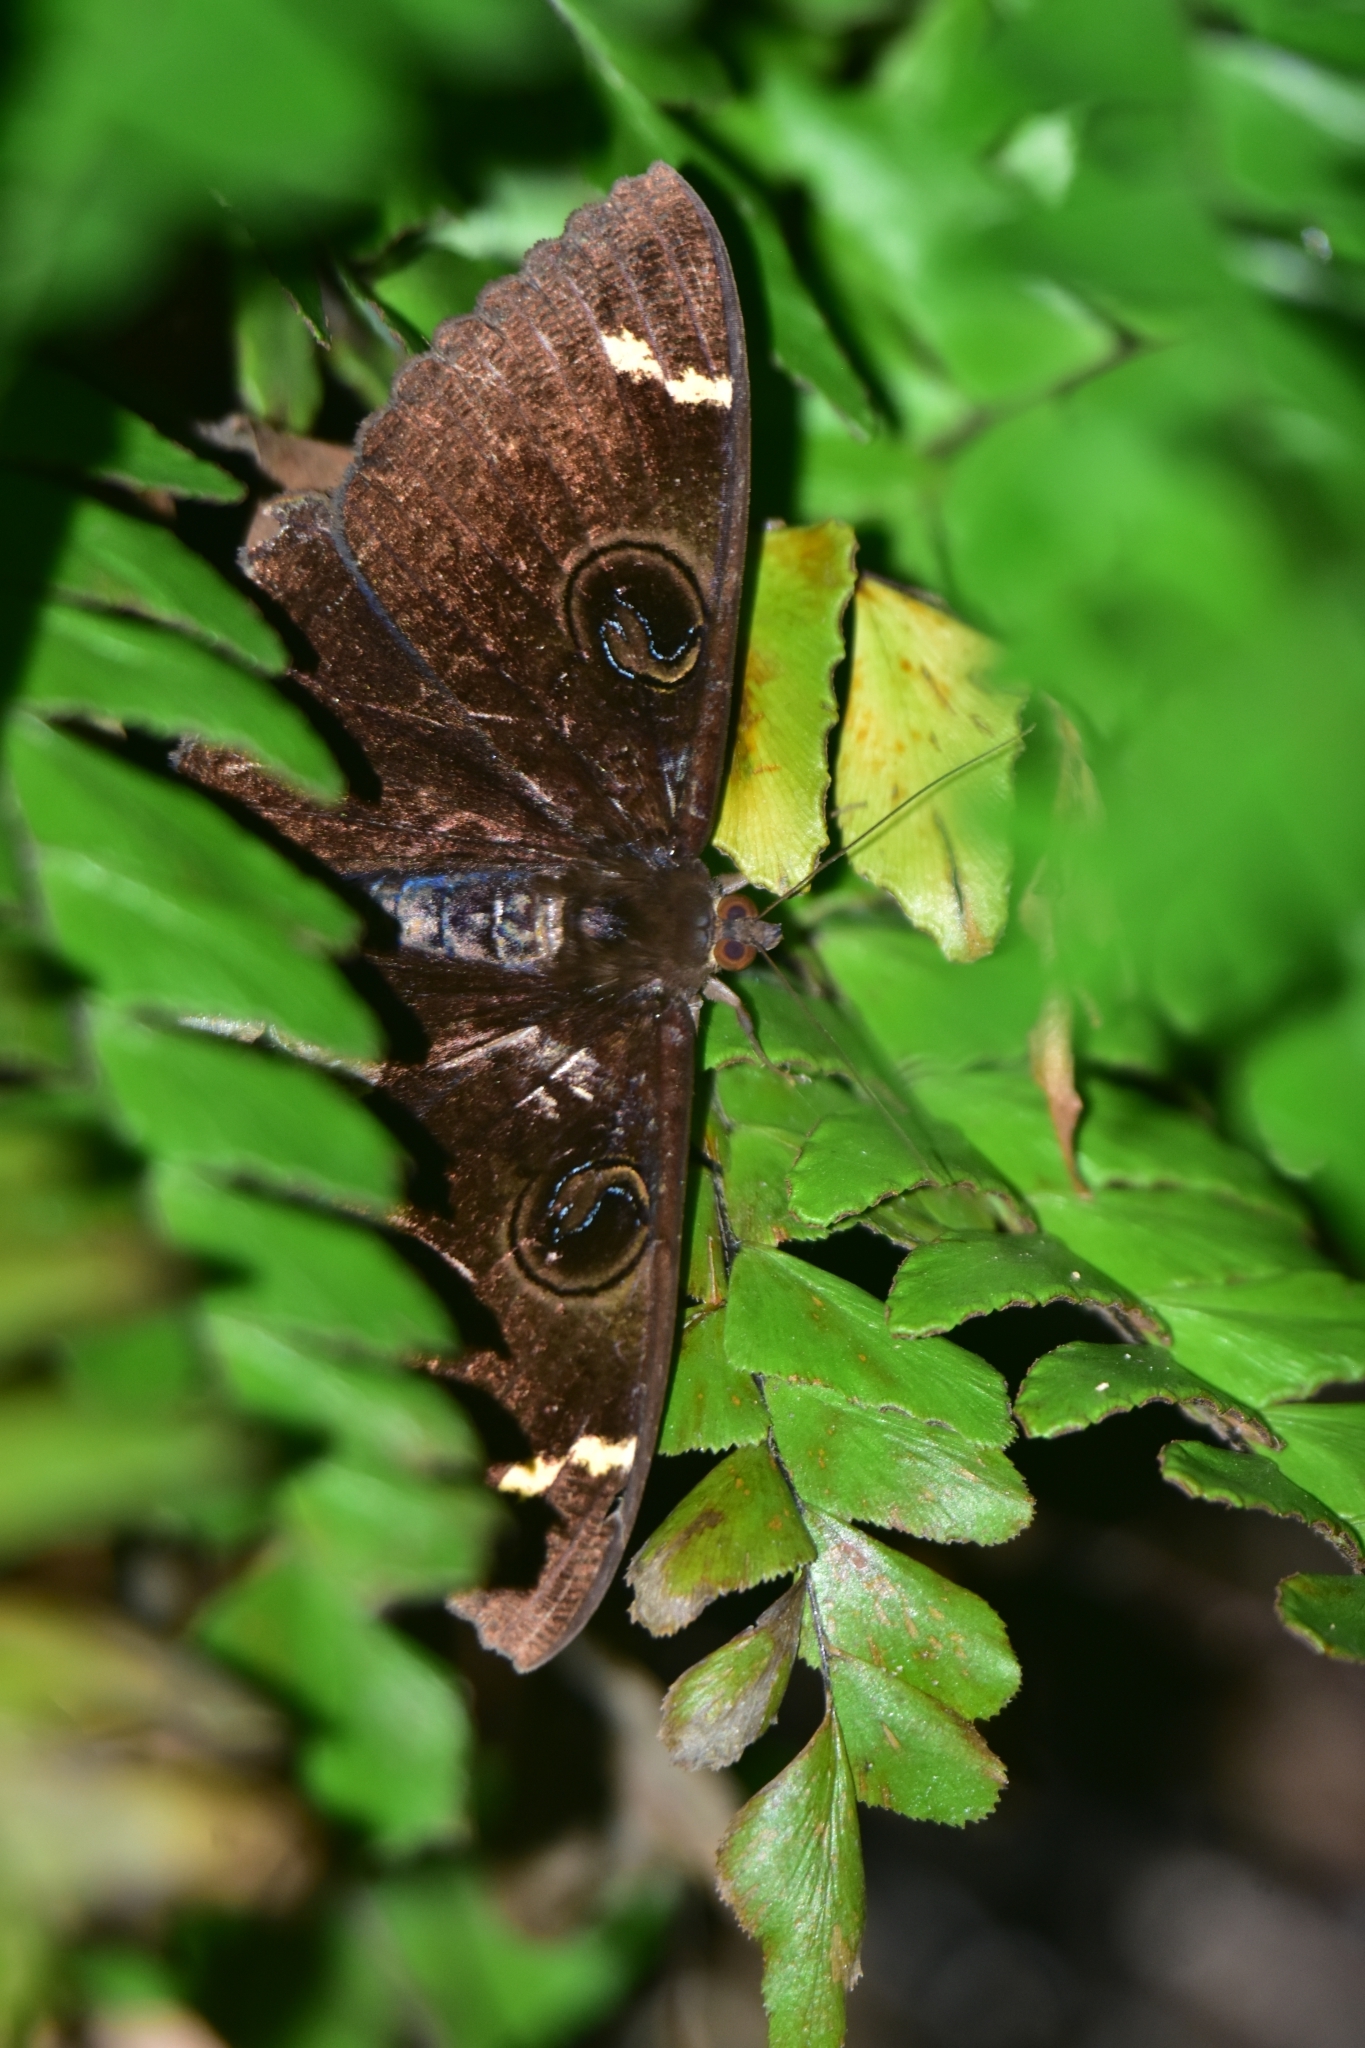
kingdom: Animalia
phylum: Arthropoda
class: Insecta
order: Lepidoptera
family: Erebidae
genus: Erebus
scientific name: Erebus hieroglyphica
